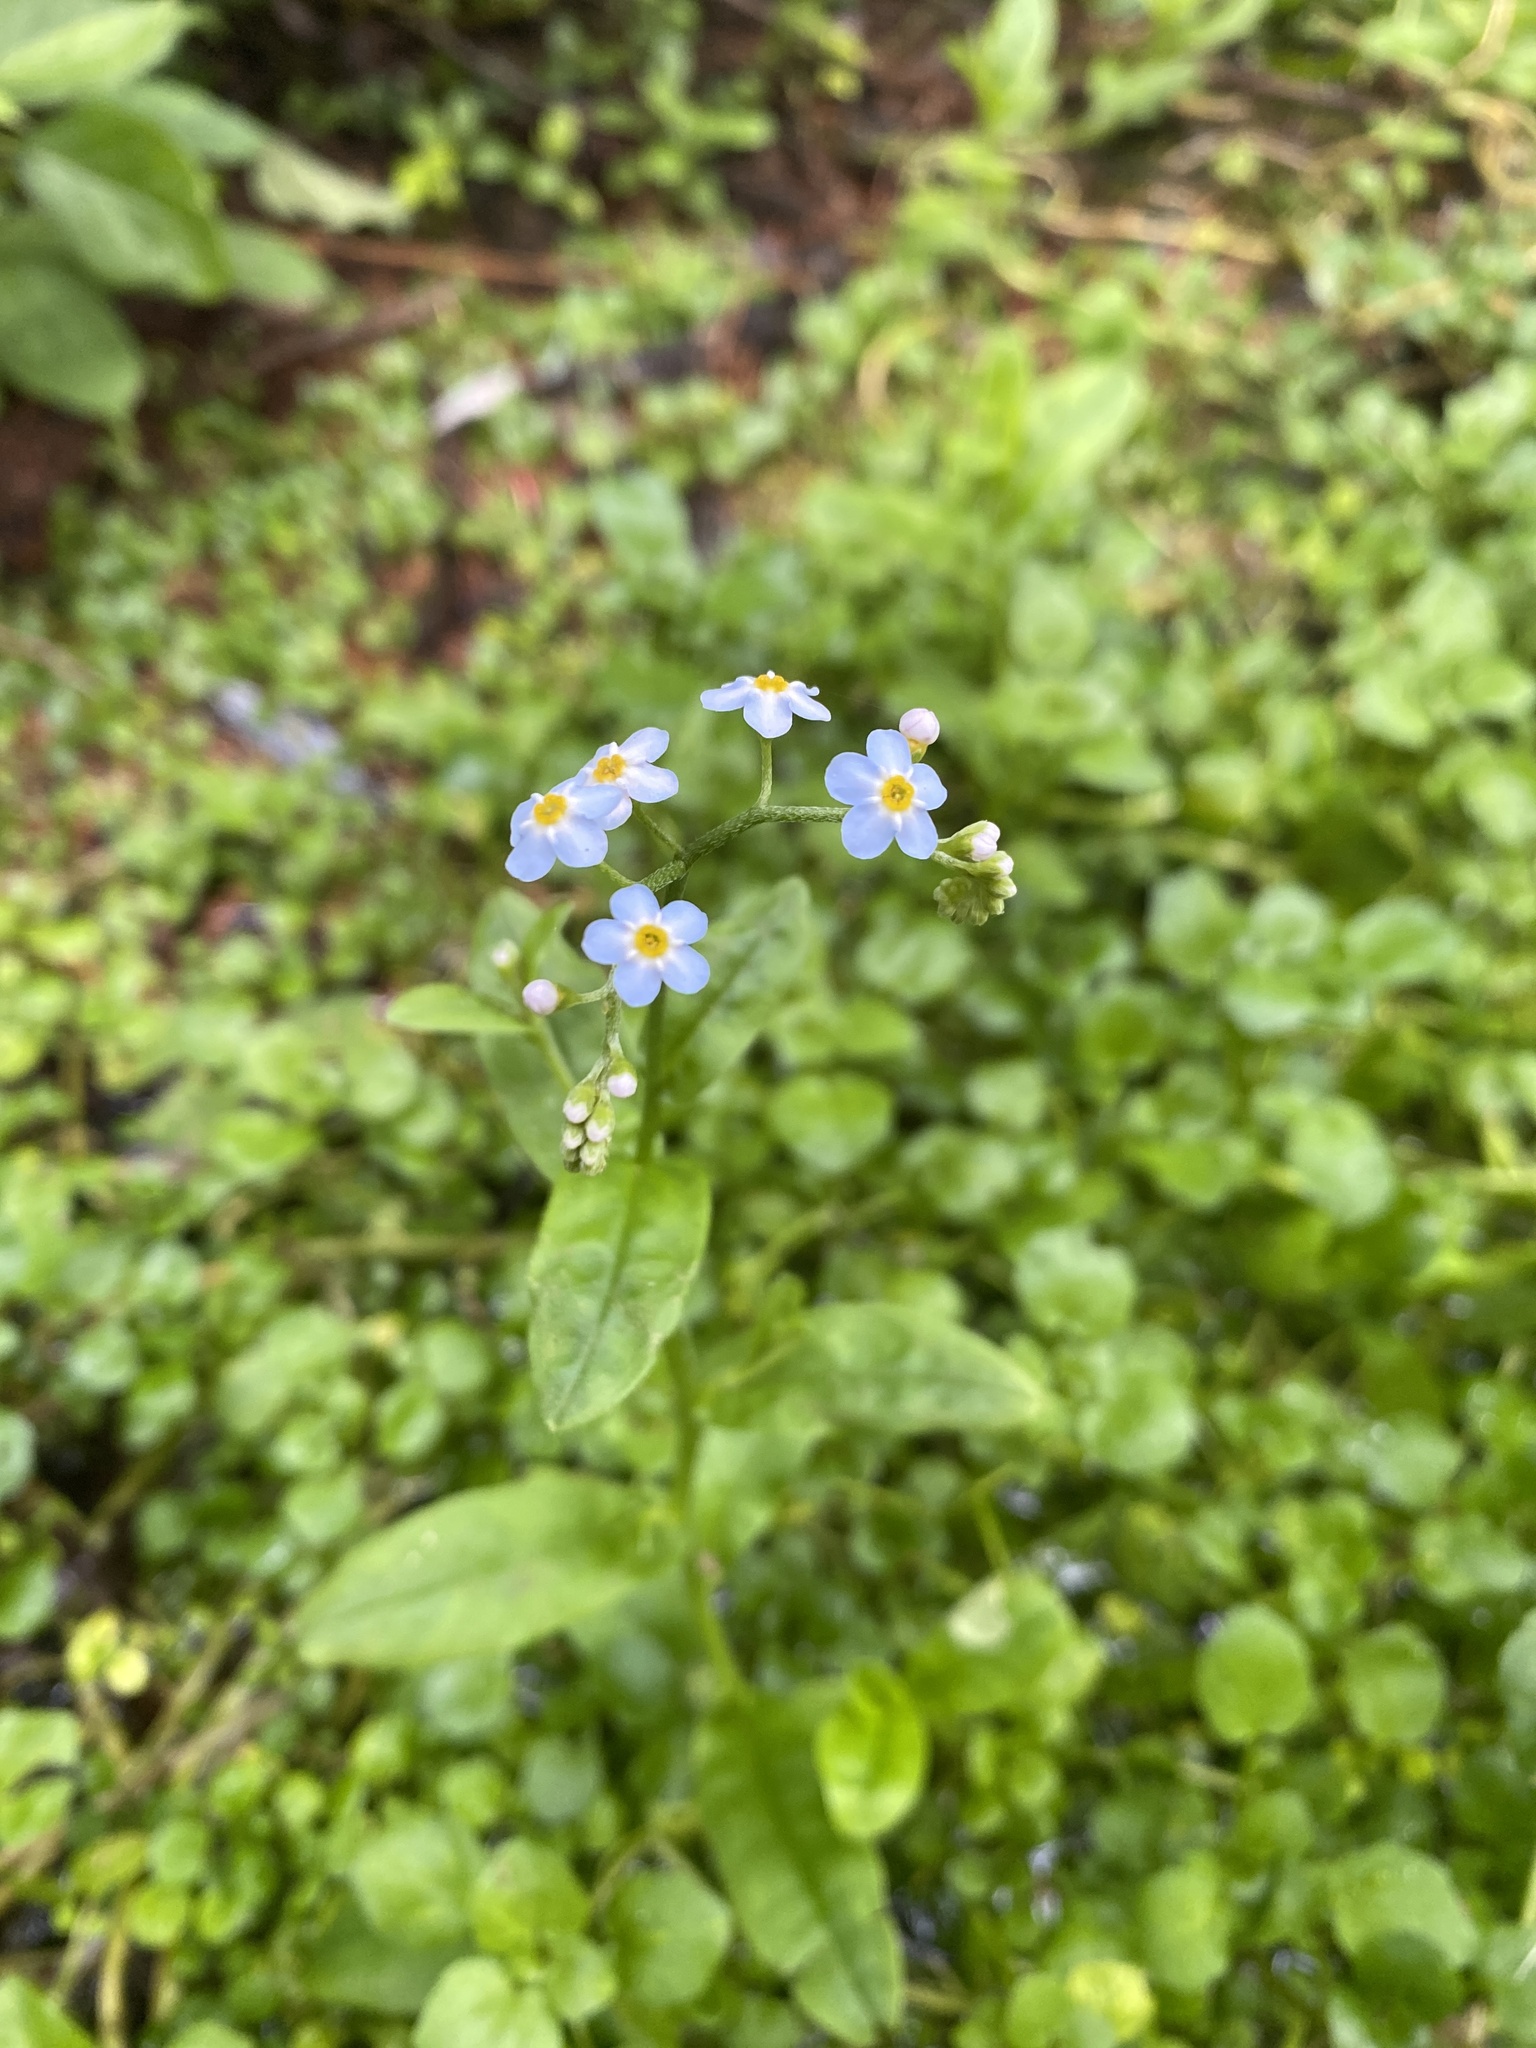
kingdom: Plantae
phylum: Tracheophyta
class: Magnoliopsida
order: Boraginales
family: Boraginaceae
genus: Myosotis
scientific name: Myosotis scorpioides
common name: Water forget-me-not
